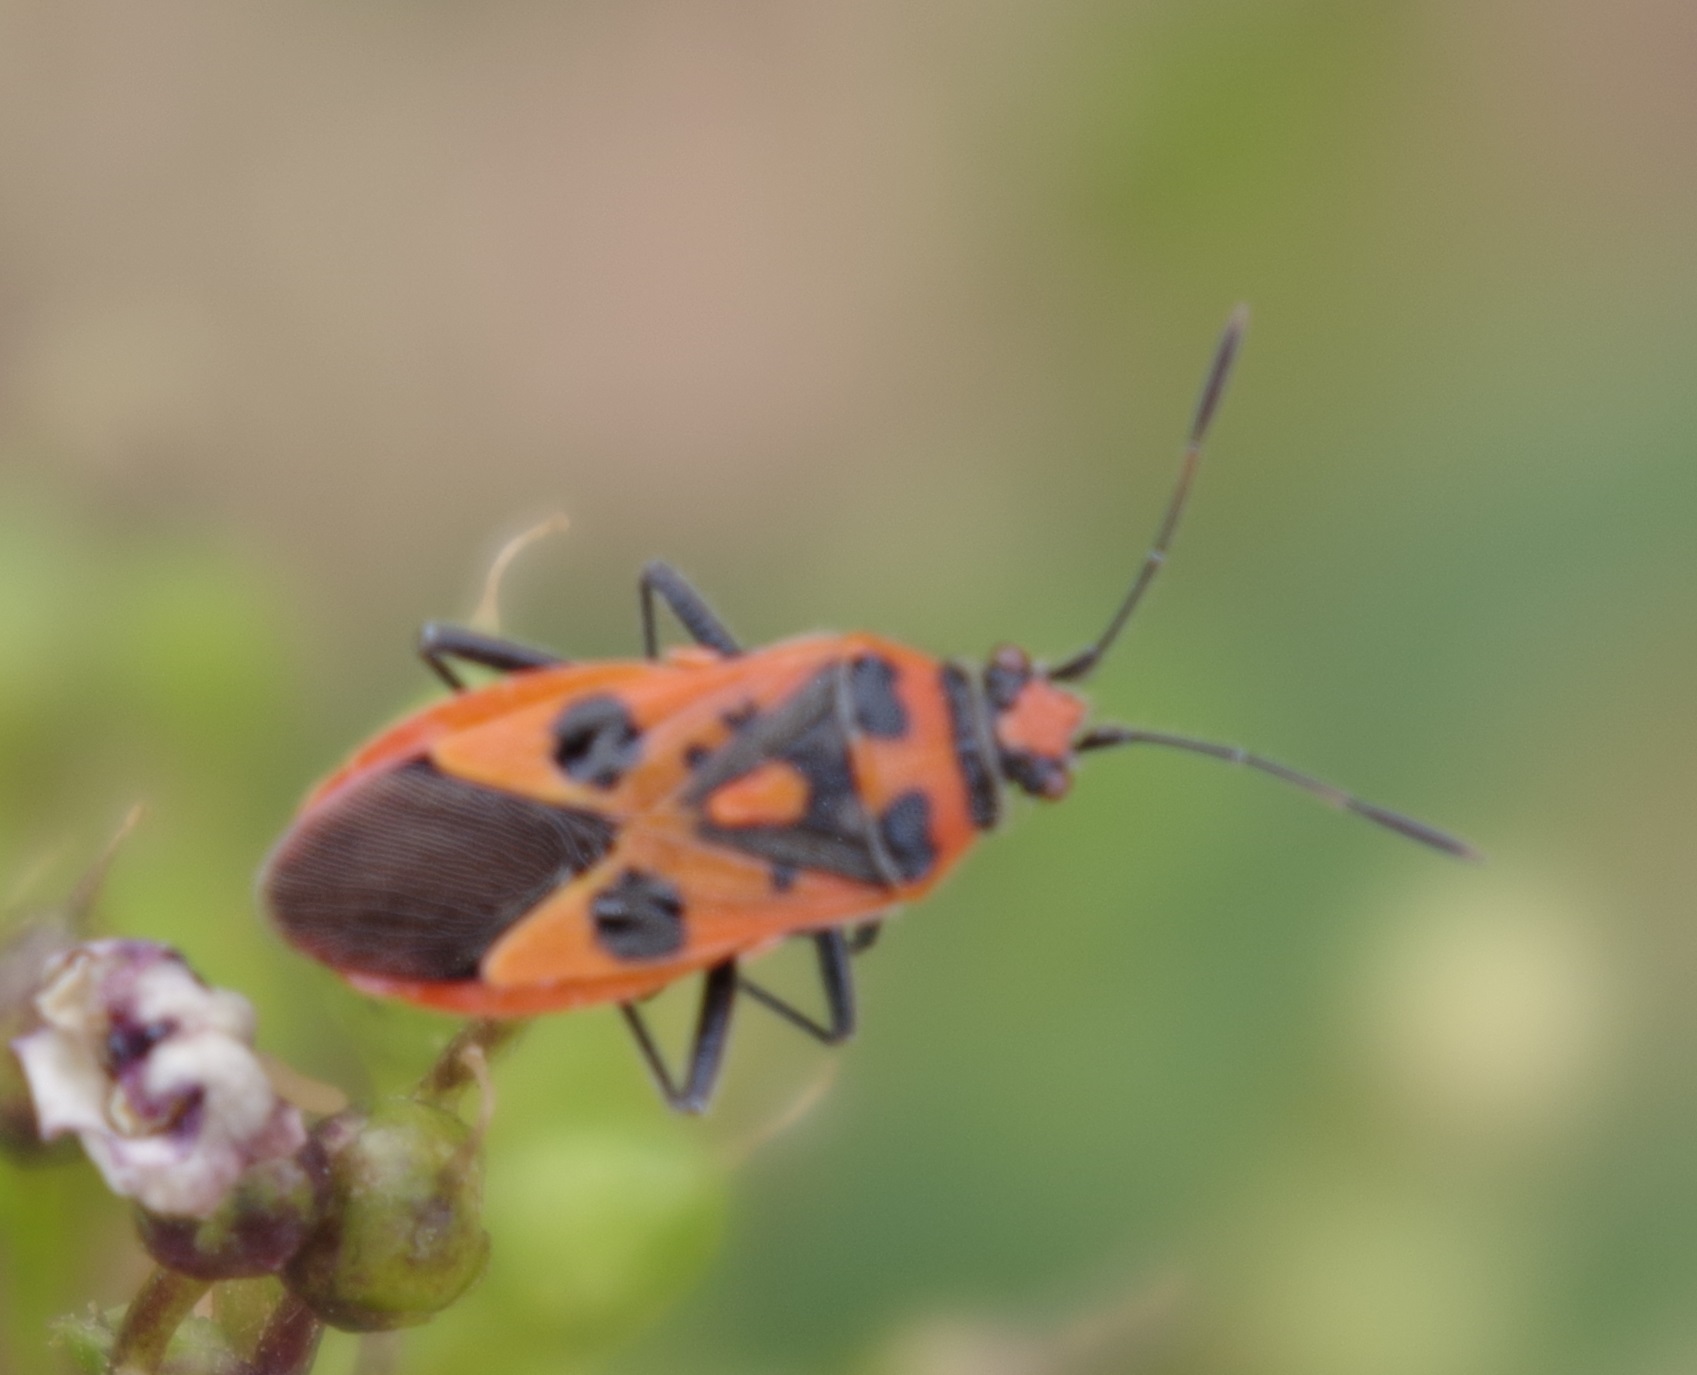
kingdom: Animalia
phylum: Arthropoda
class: Insecta
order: Hemiptera
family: Rhopalidae
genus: Corizus
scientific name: Corizus hyoscyami
